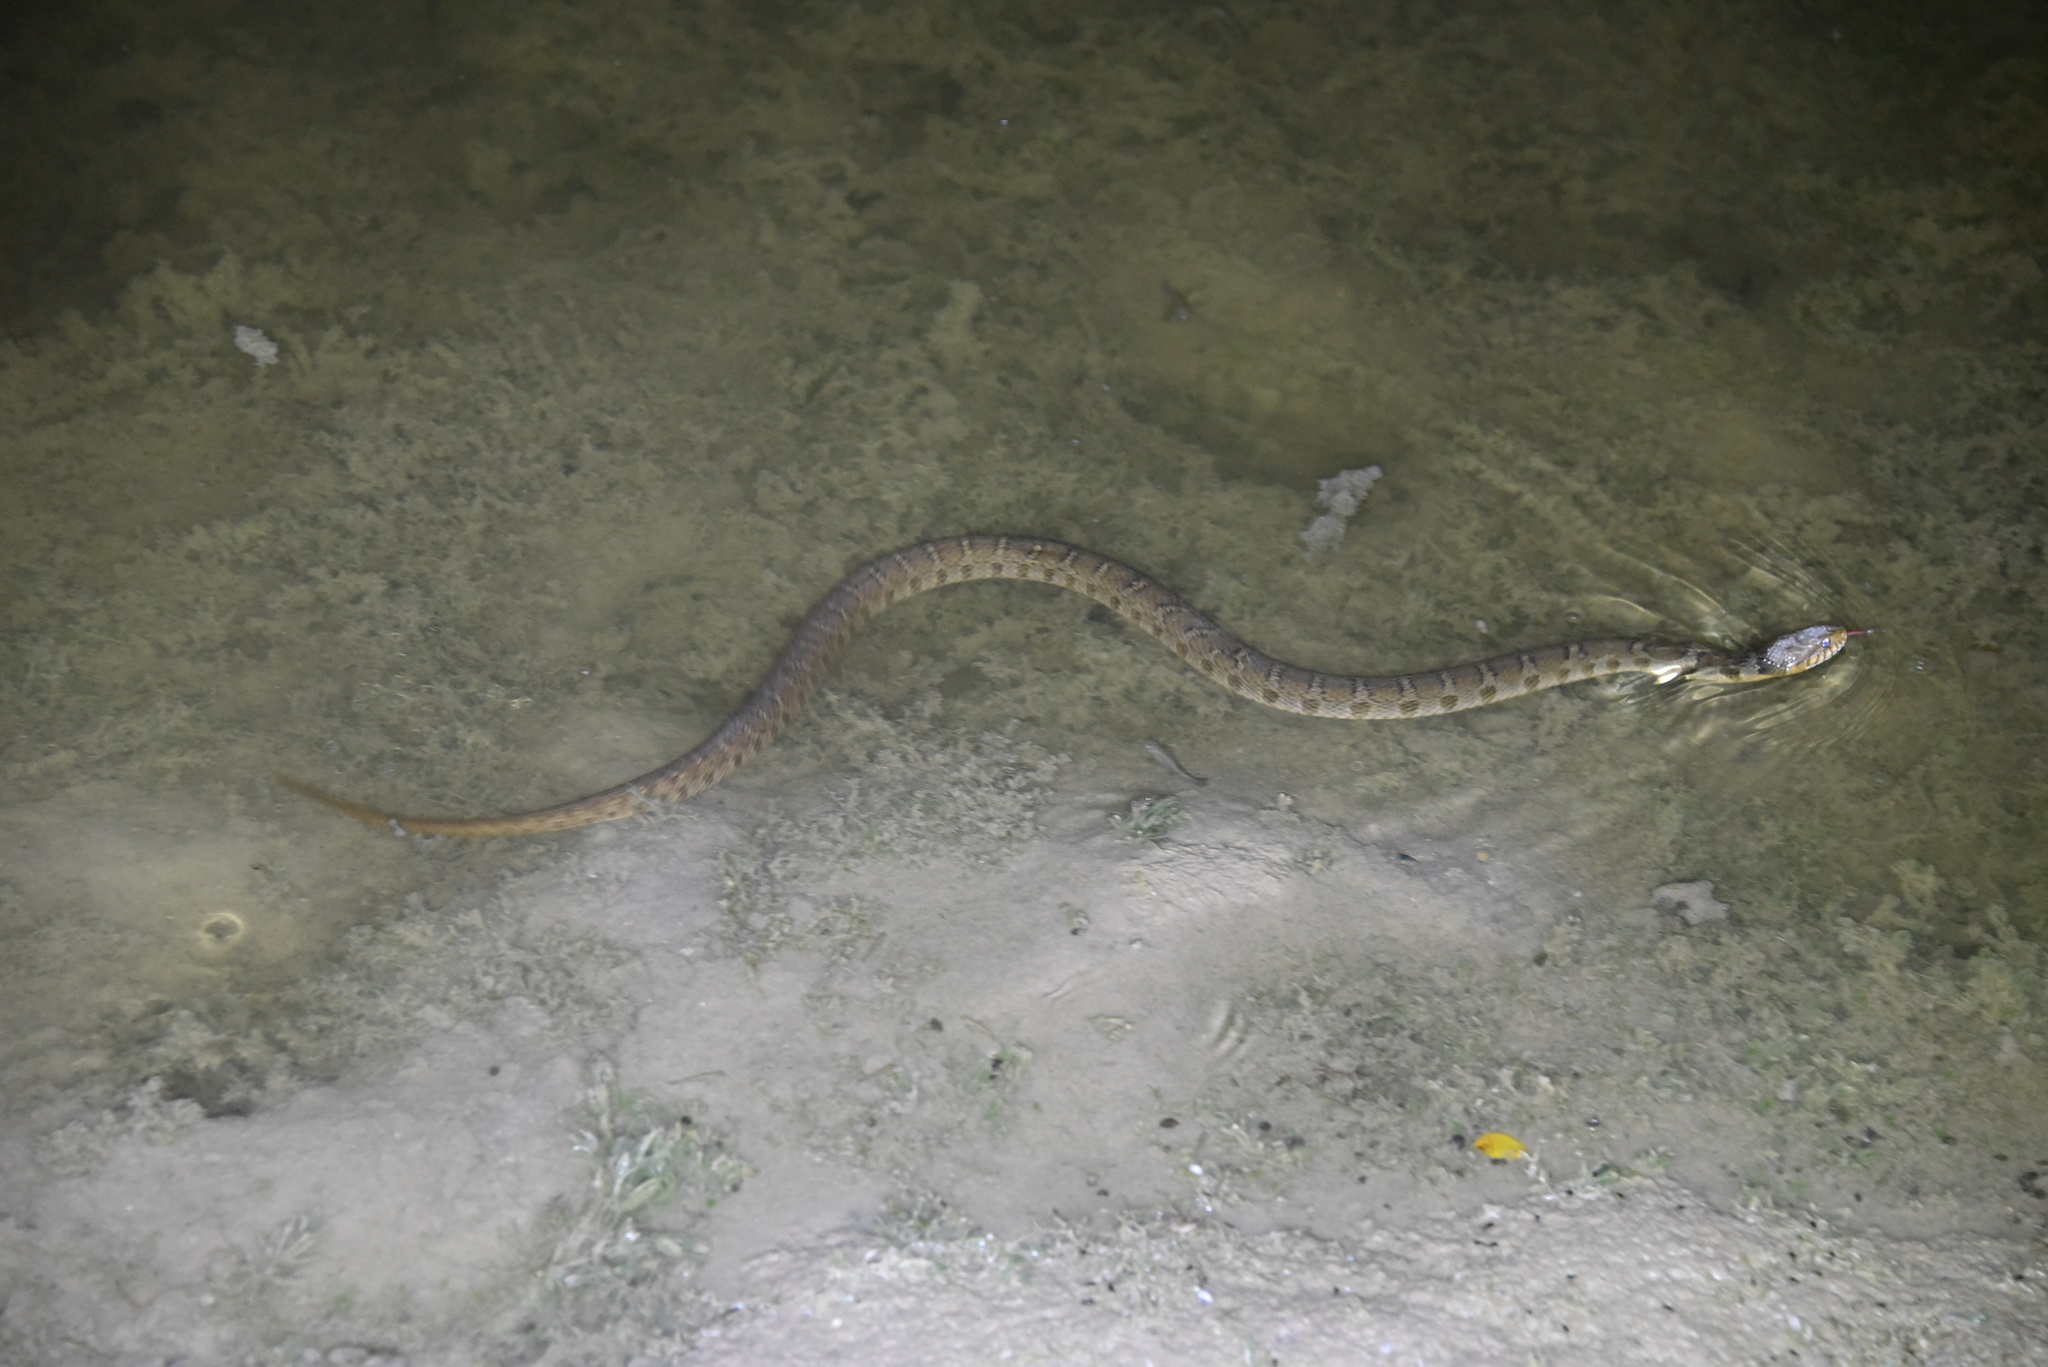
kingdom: Animalia
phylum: Chordata
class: Squamata
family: Colubridae
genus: Nerodia
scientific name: Nerodia erythrogaster
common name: Plainbelly water snake
